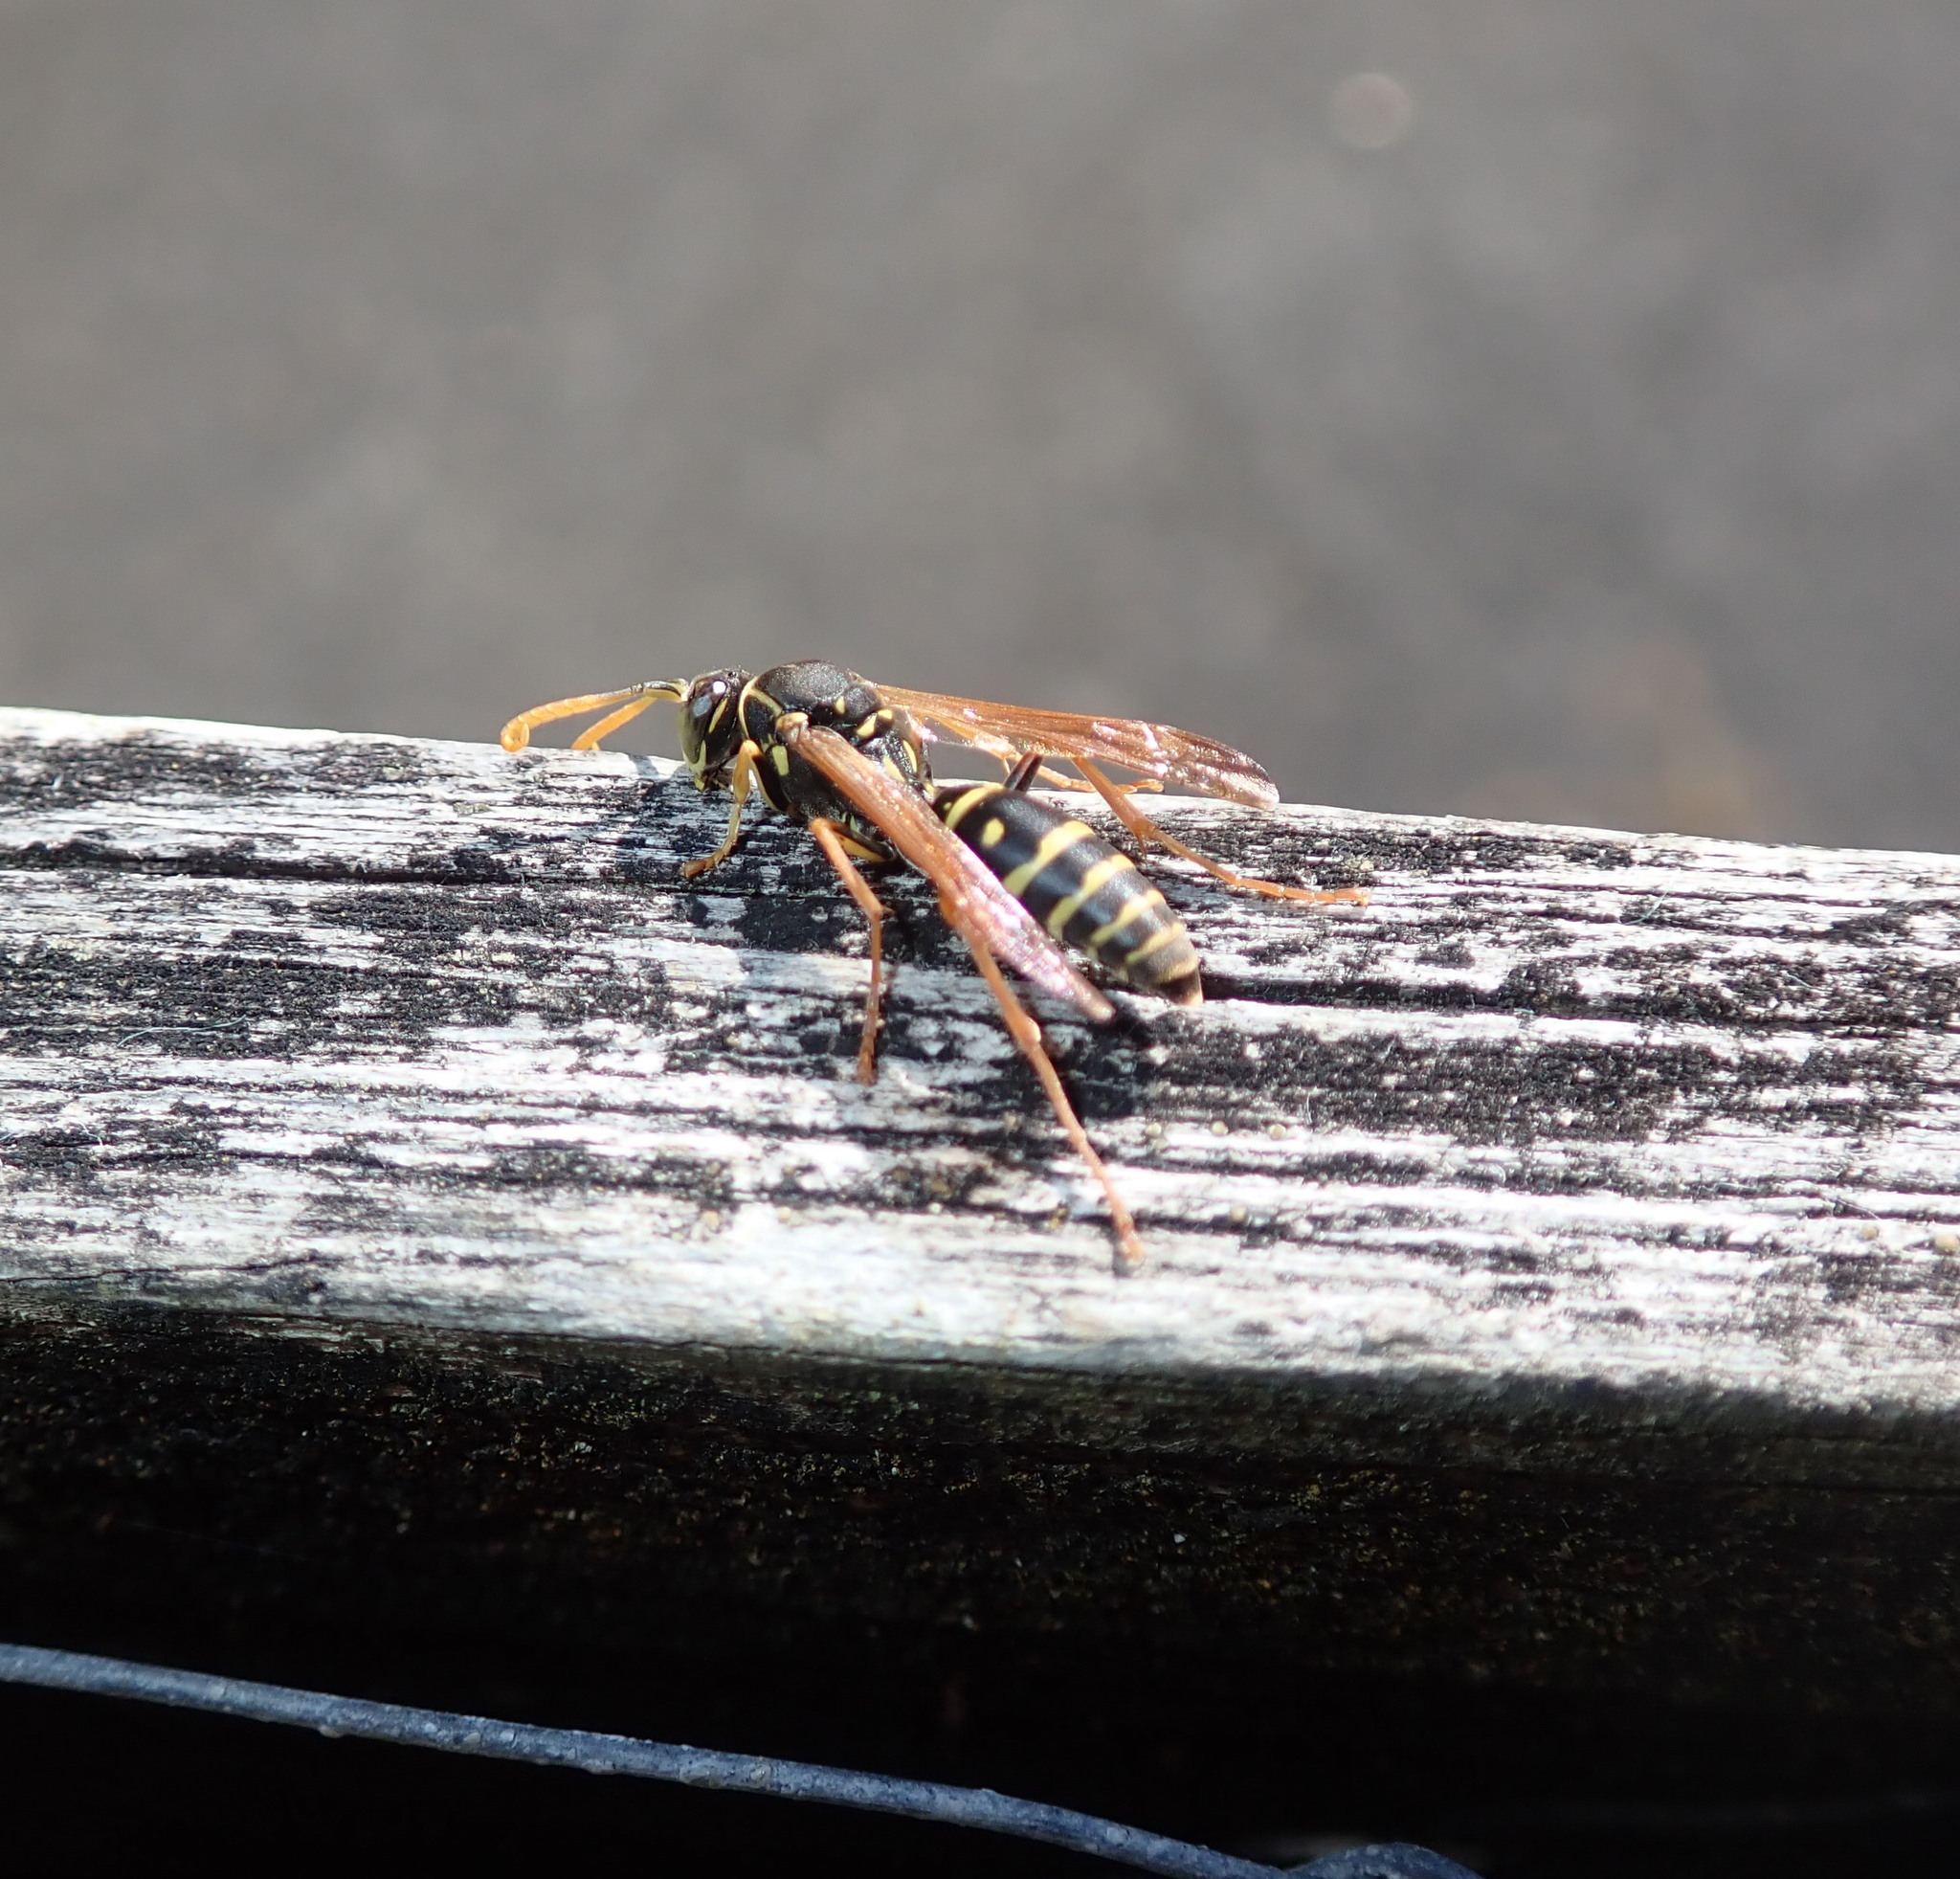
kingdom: Animalia
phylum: Arthropoda
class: Insecta
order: Hymenoptera
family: Eumenidae
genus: Polistes
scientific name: Polistes chinensis
